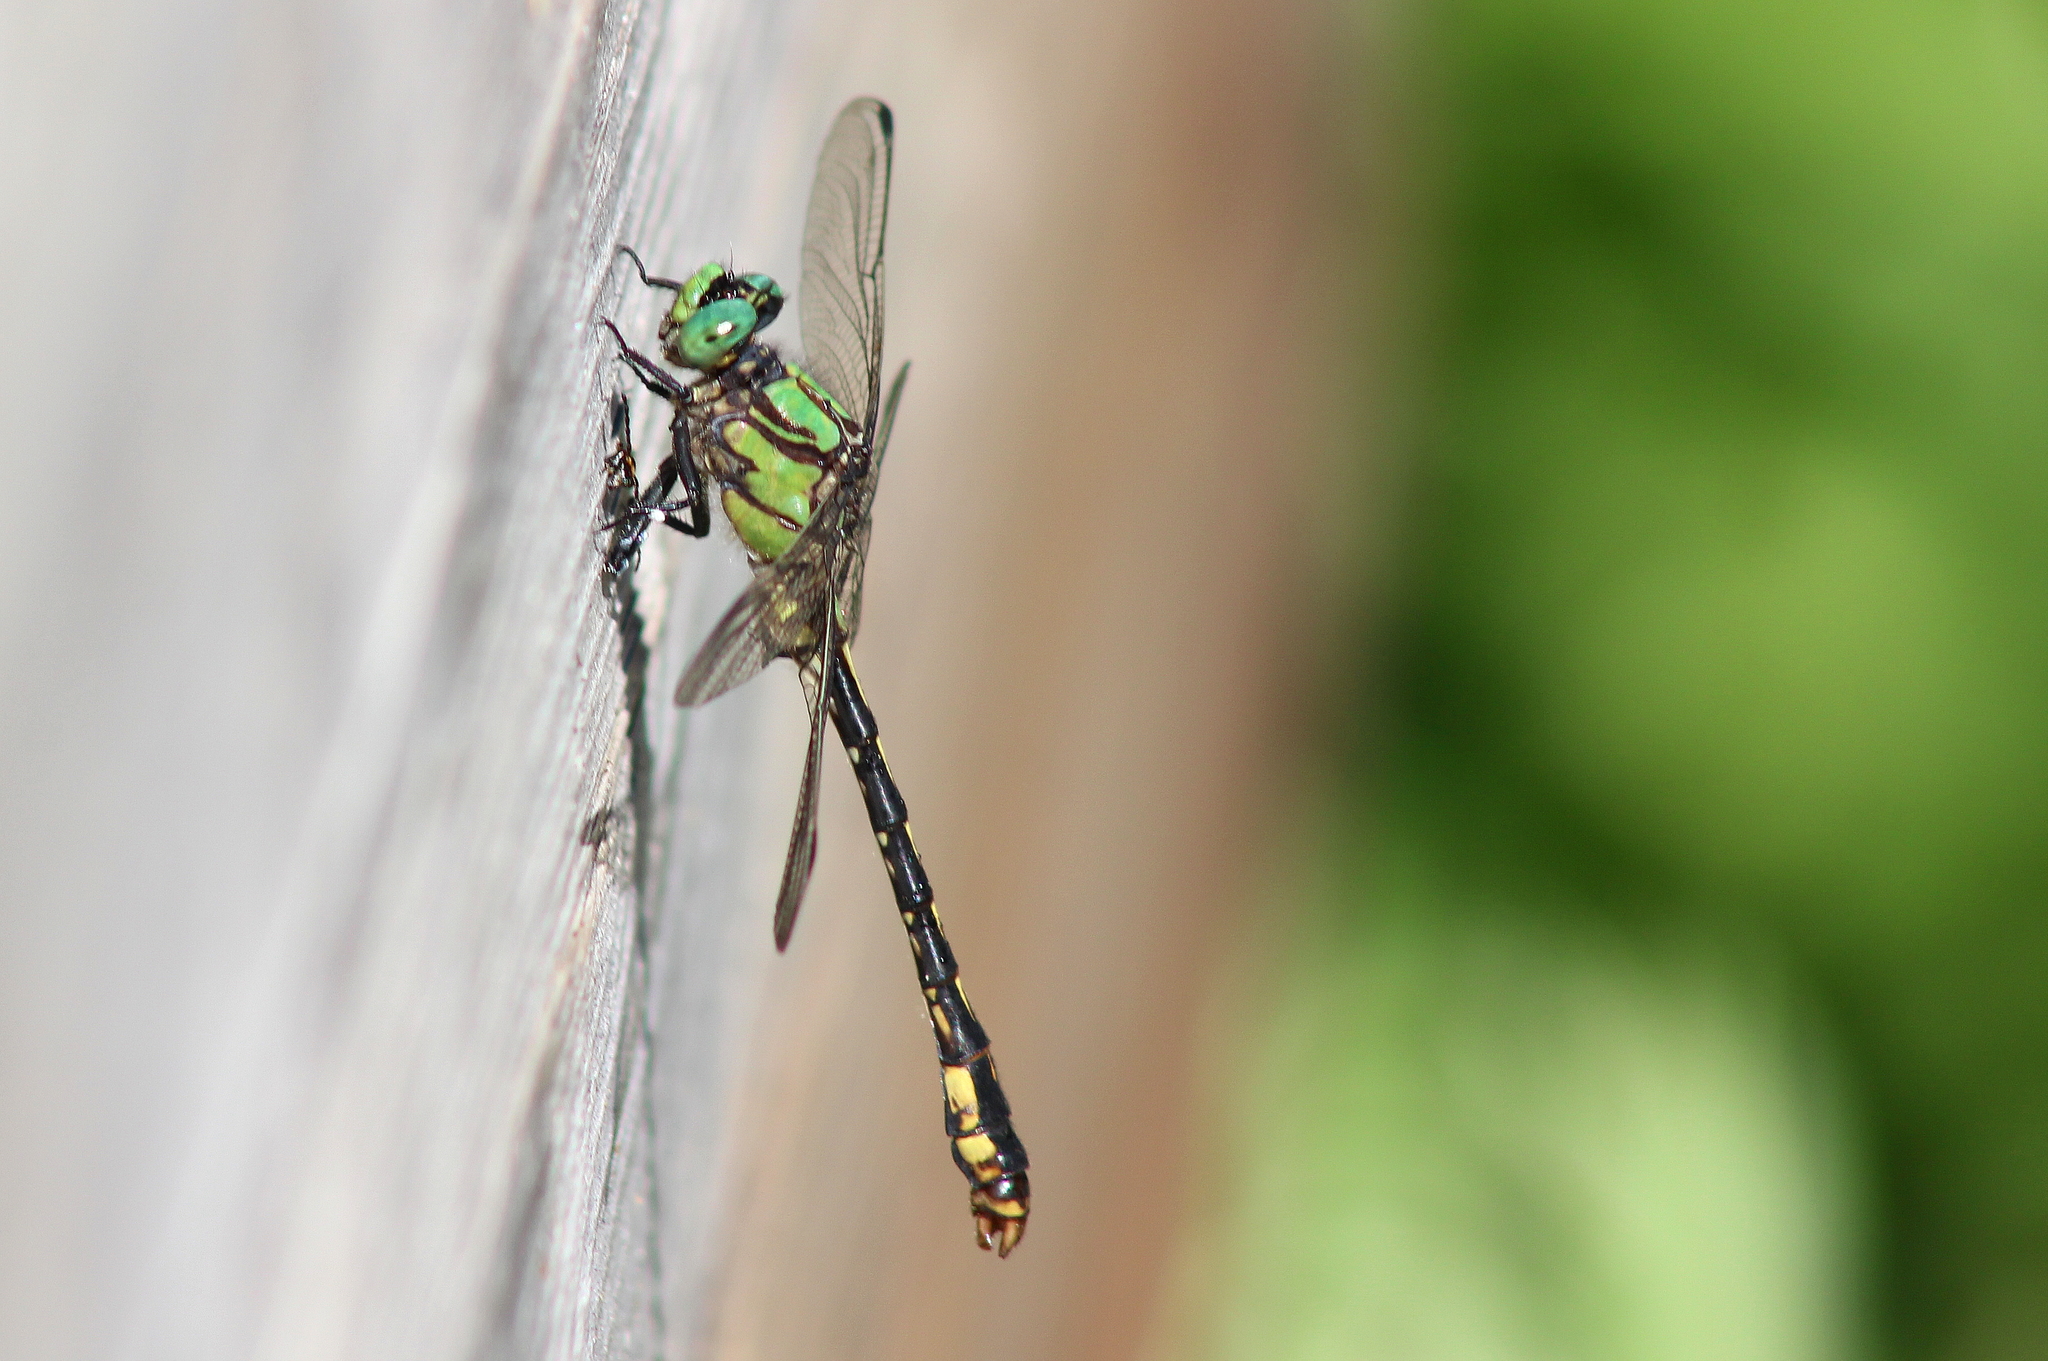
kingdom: Animalia
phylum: Arthropoda
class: Insecta
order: Odonata
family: Gomphidae
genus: Ophiogomphus
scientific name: Ophiogomphus mainensis
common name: Maine snaketail
